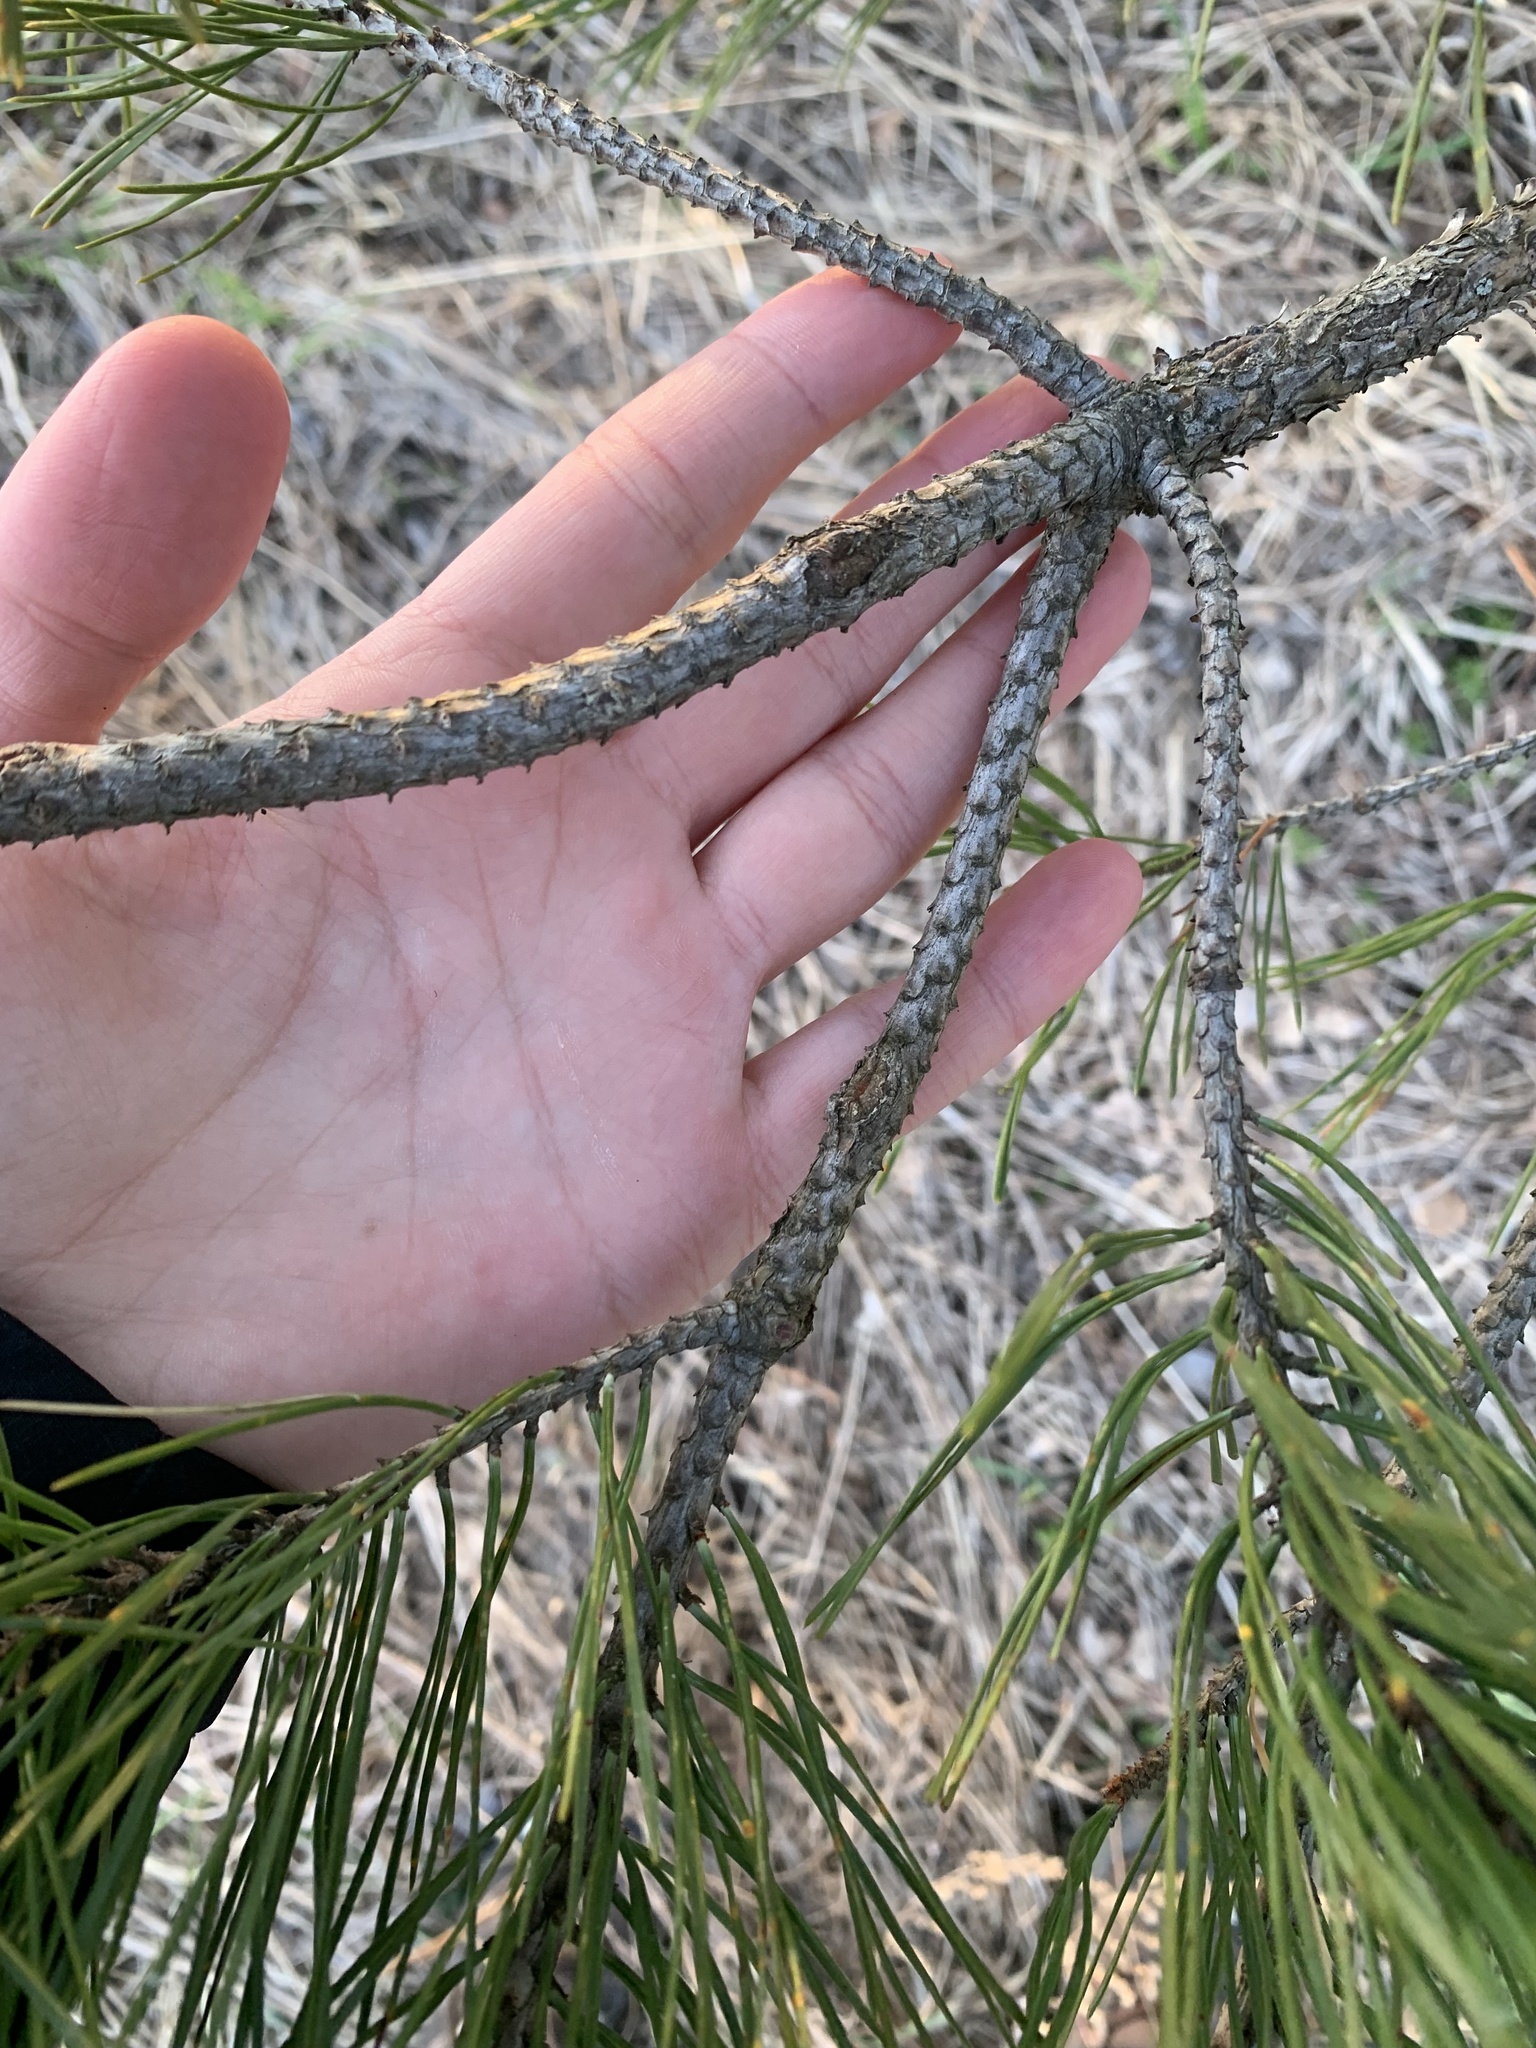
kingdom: Plantae
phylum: Tracheophyta
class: Pinopsida
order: Pinales
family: Pinaceae
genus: Pinus
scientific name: Pinus sylvestris
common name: Scots pine
